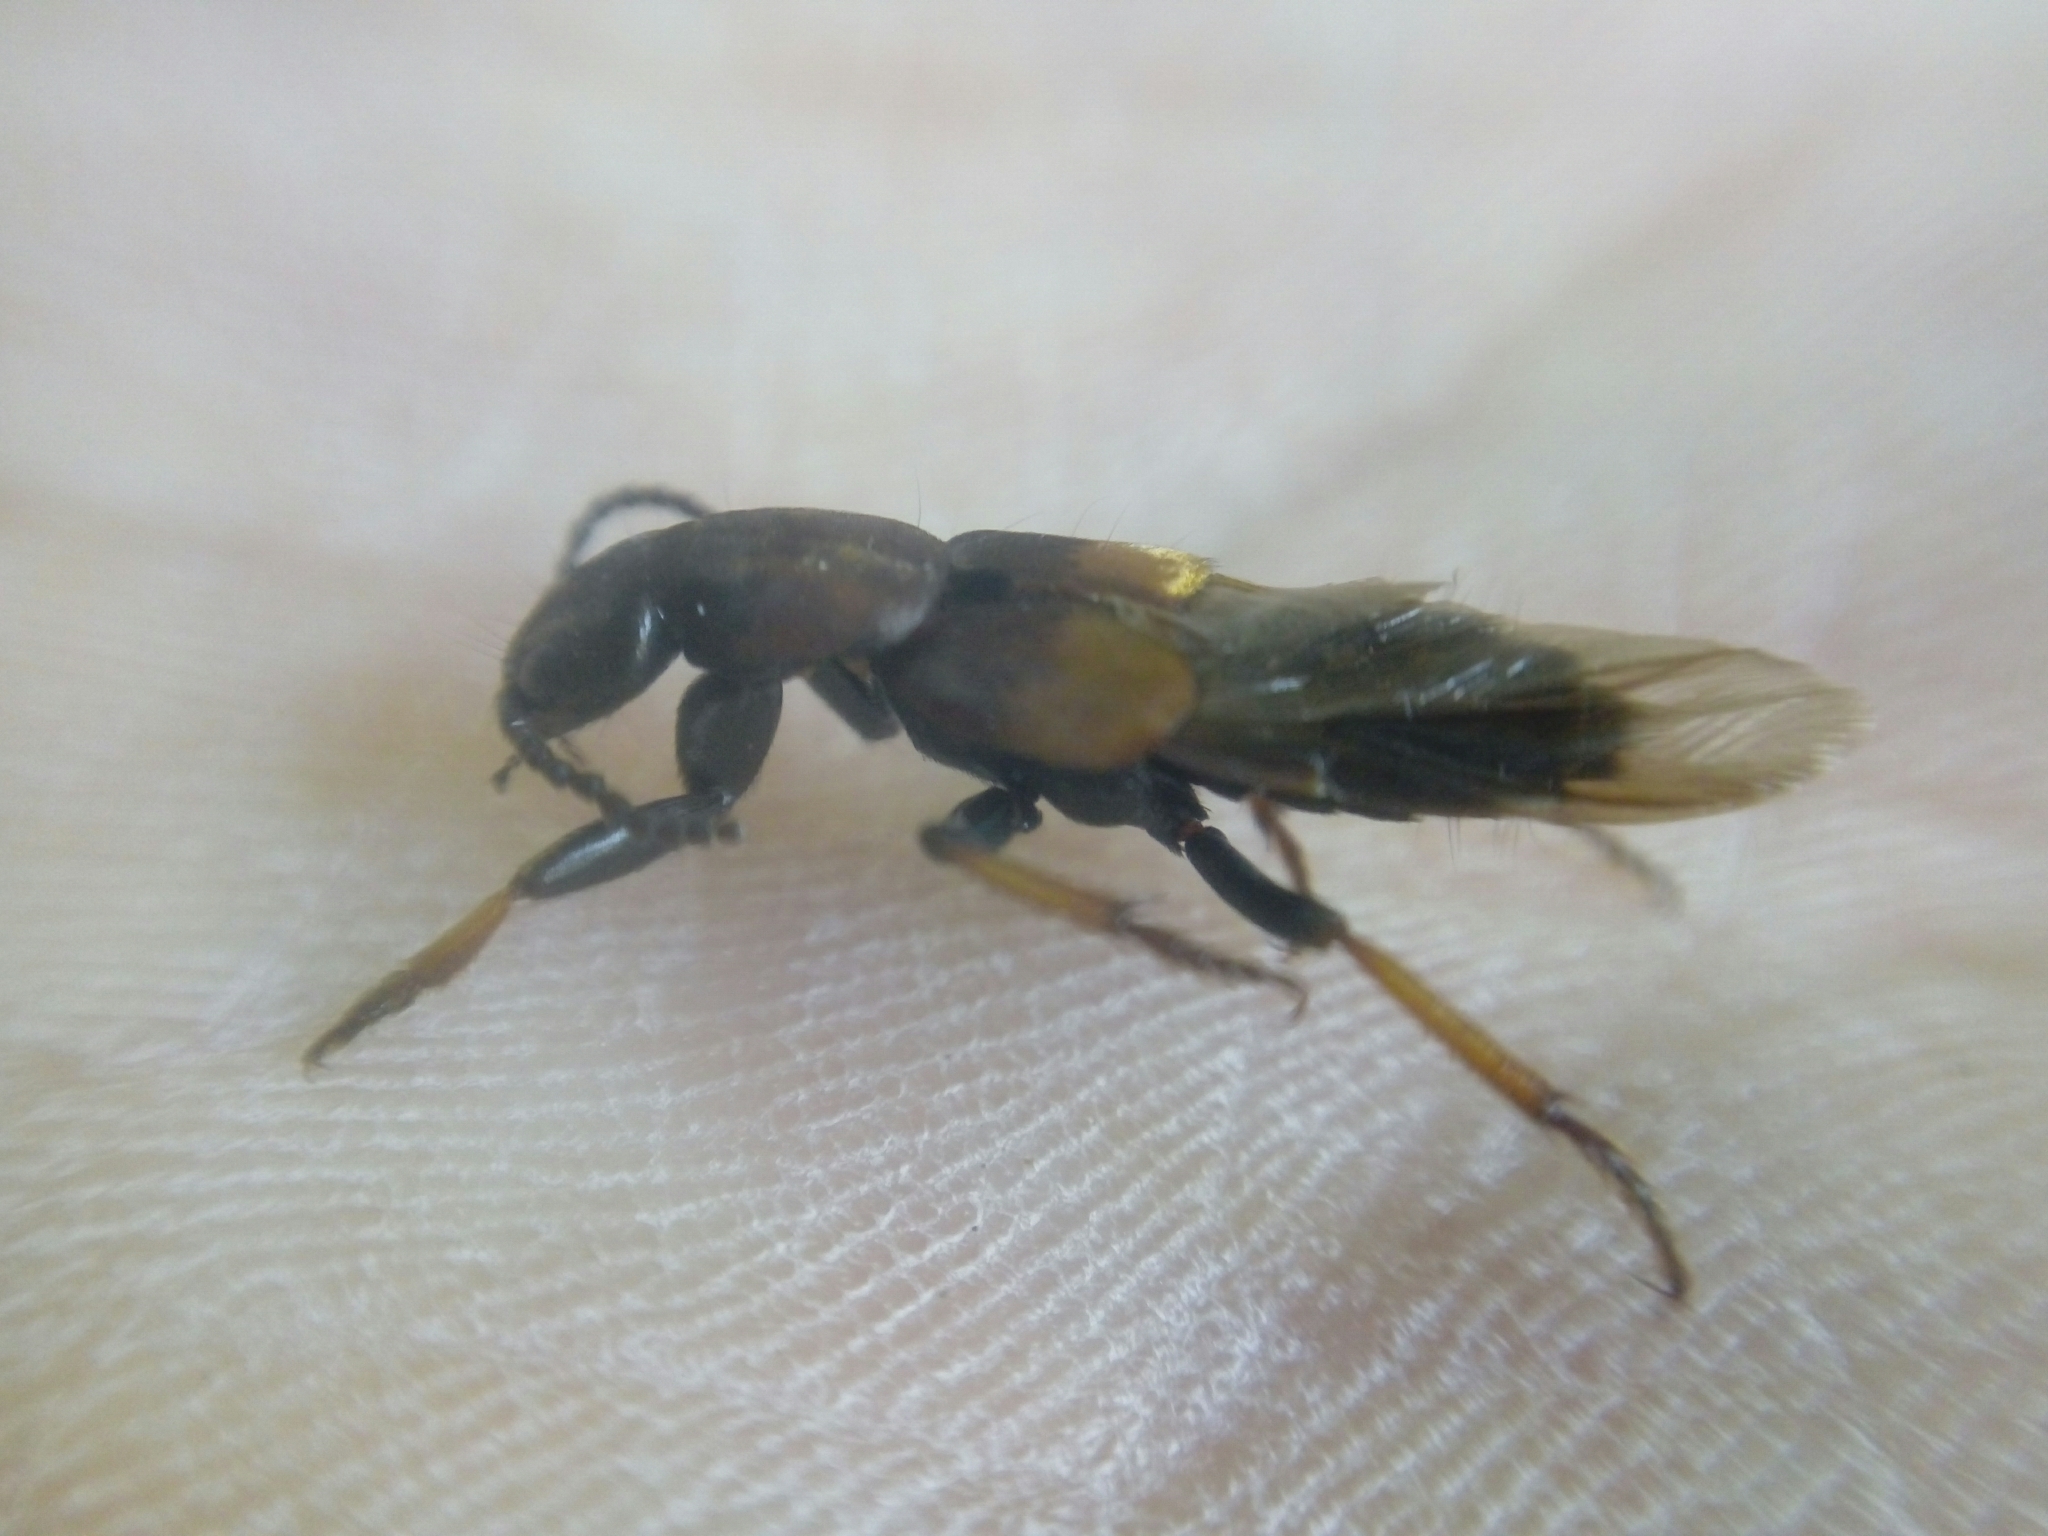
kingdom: Animalia
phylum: Arthropoda
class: Insecta
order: Coleoptera
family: Staphylinidae
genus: Dinothenarus
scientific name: Dinothenarus fossor
